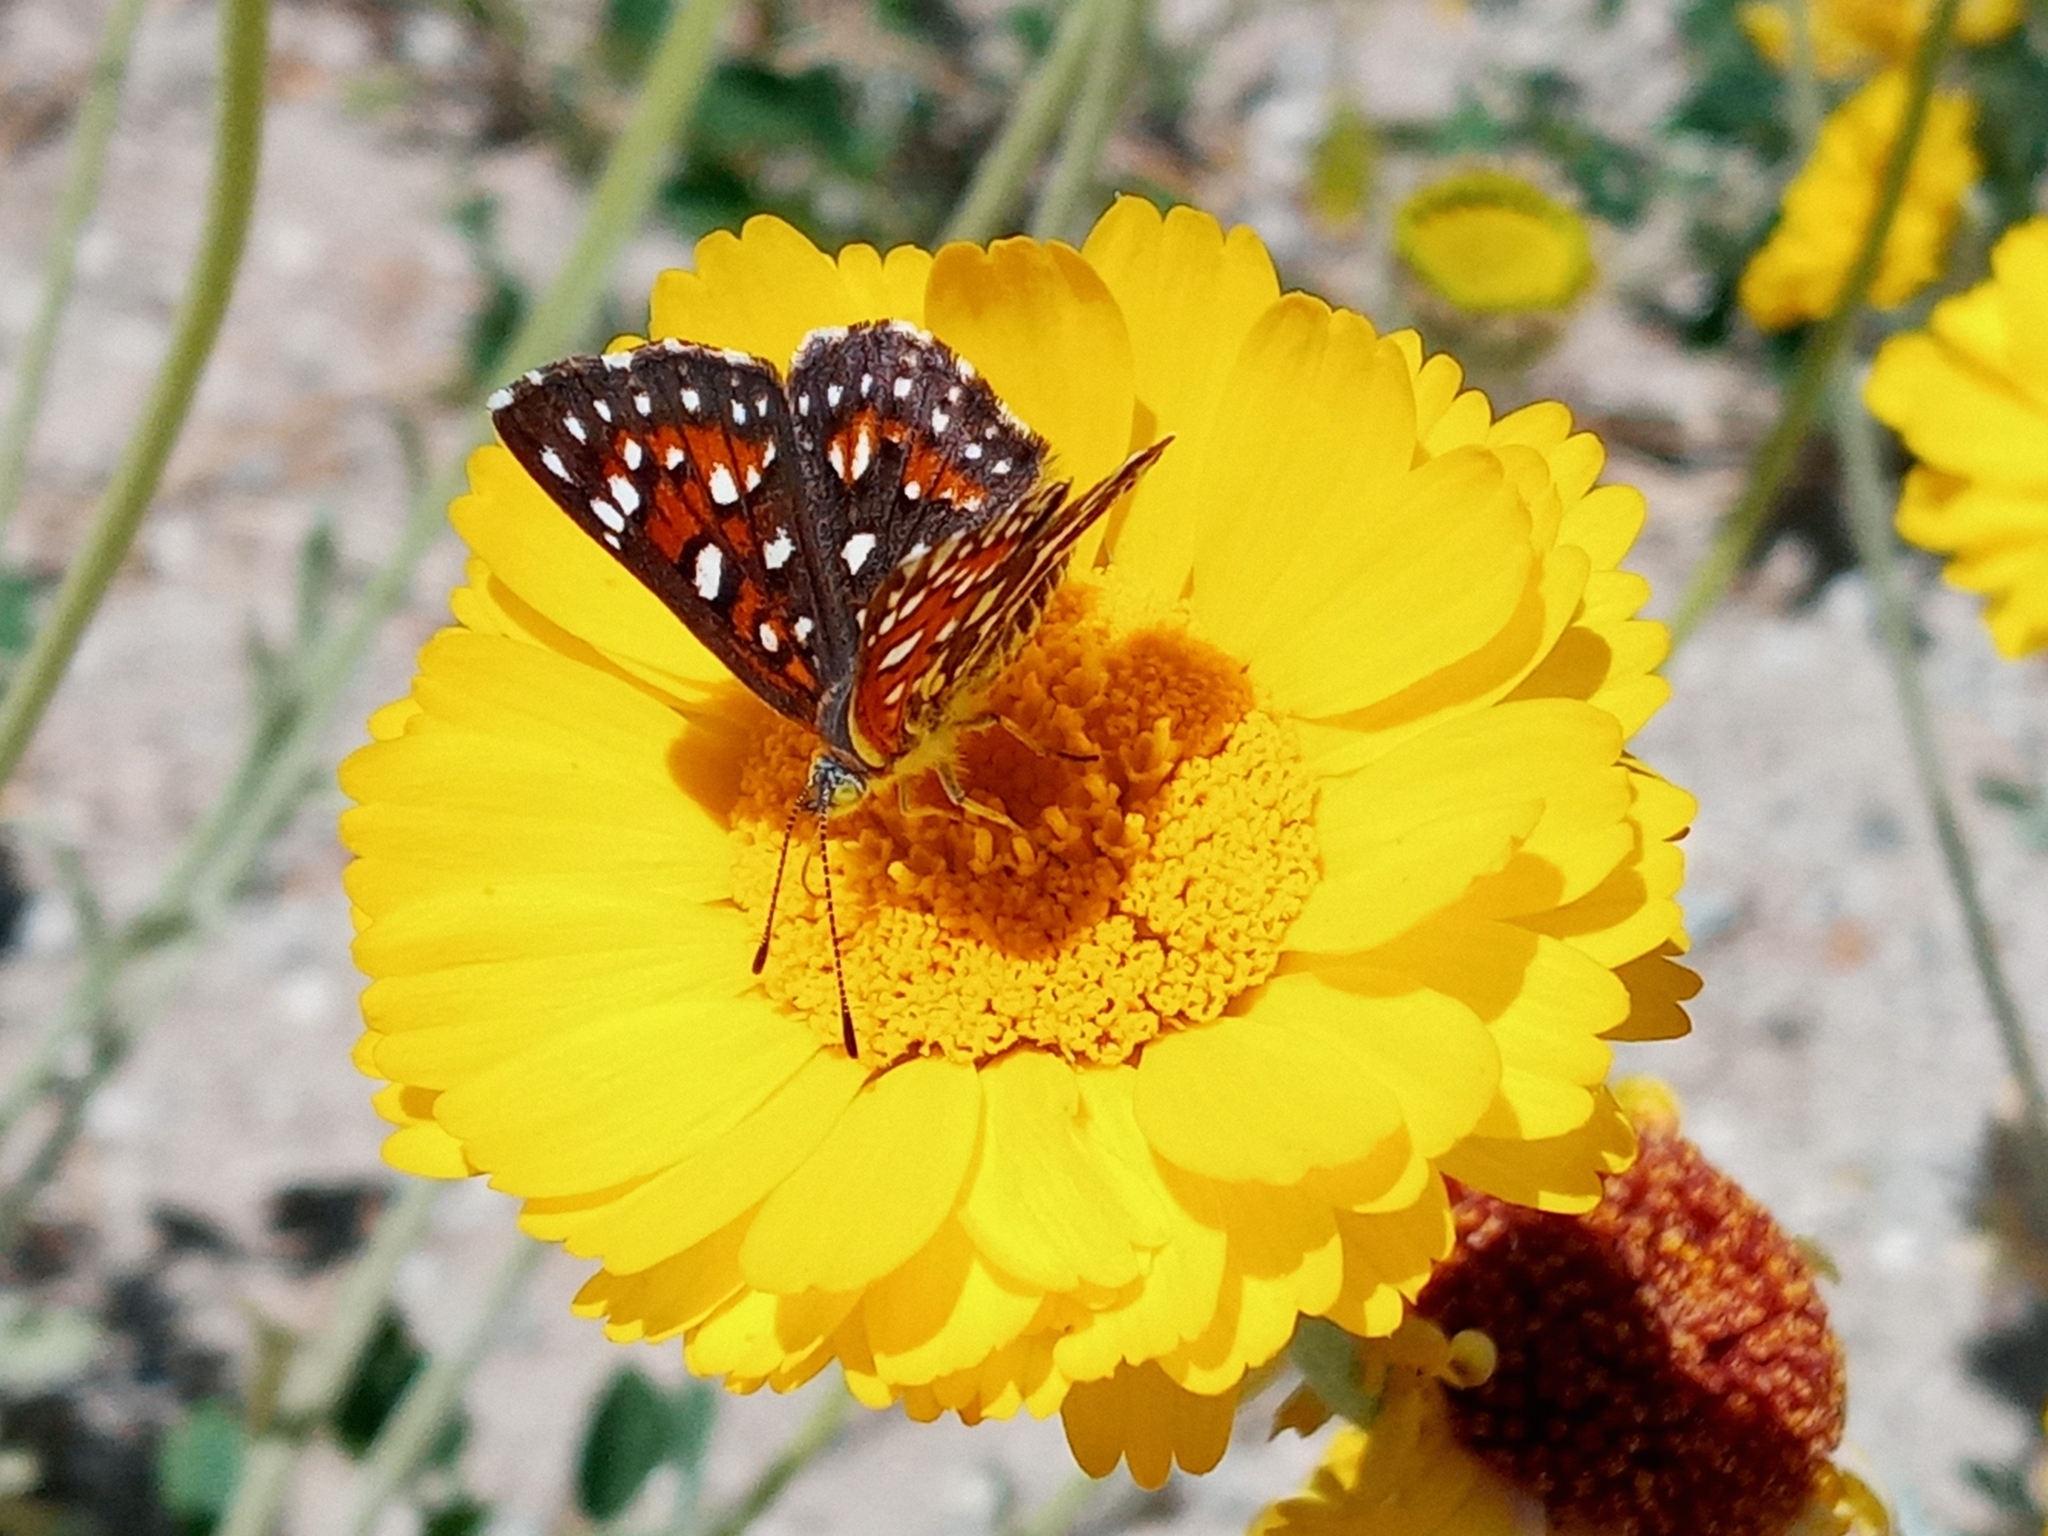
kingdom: Animalia
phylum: Arthropoda
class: Insecta
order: Lepidoptera
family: Riodinidae
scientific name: Riodinidae
